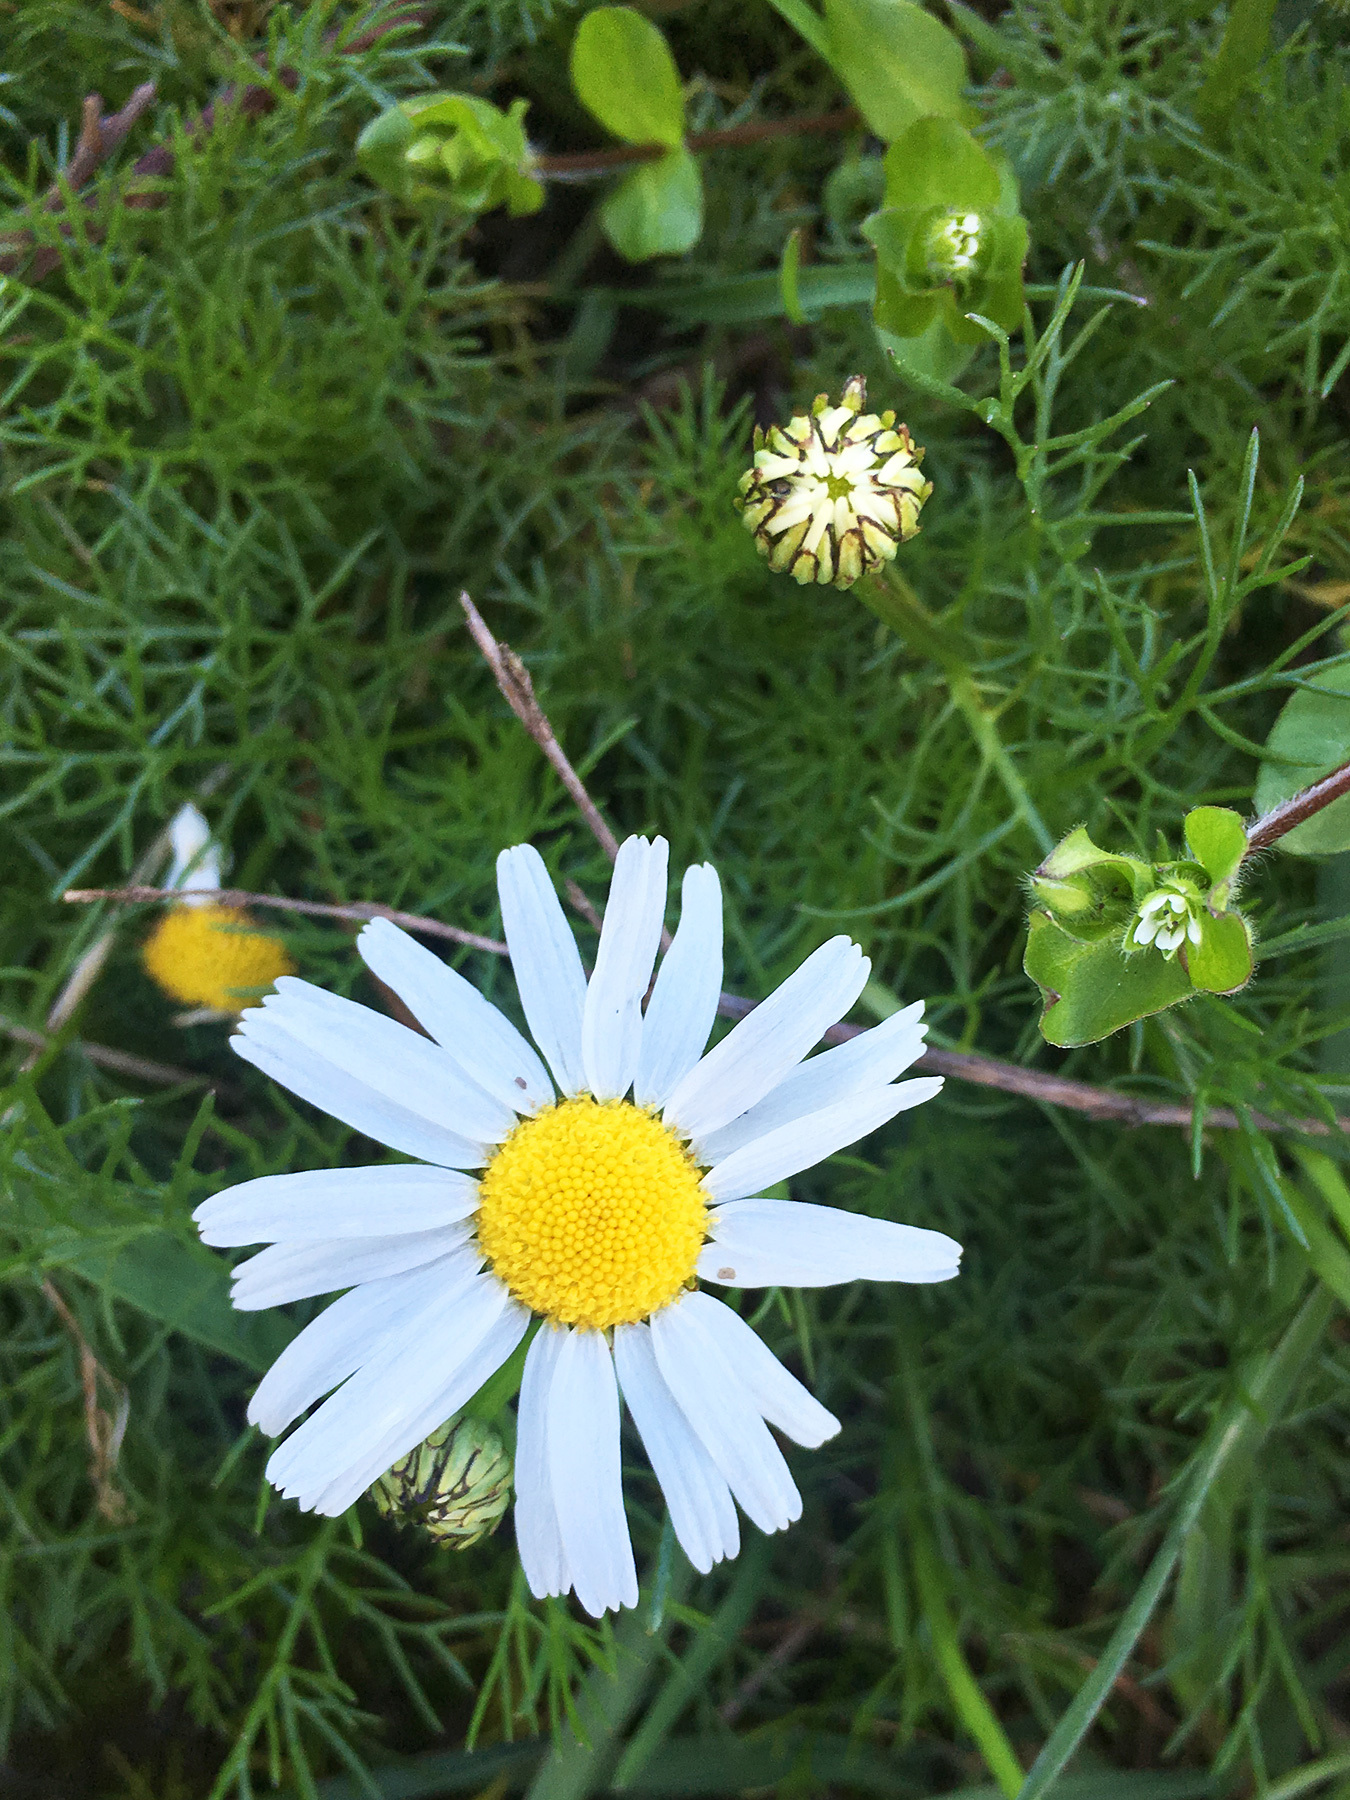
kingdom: Plantae
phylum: Tracheophyta
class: Magnoliopsida
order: Asterales
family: Asteraceae
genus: Tripleurospermum
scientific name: Tripleurospermum inodorum
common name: Scentless mayweed
